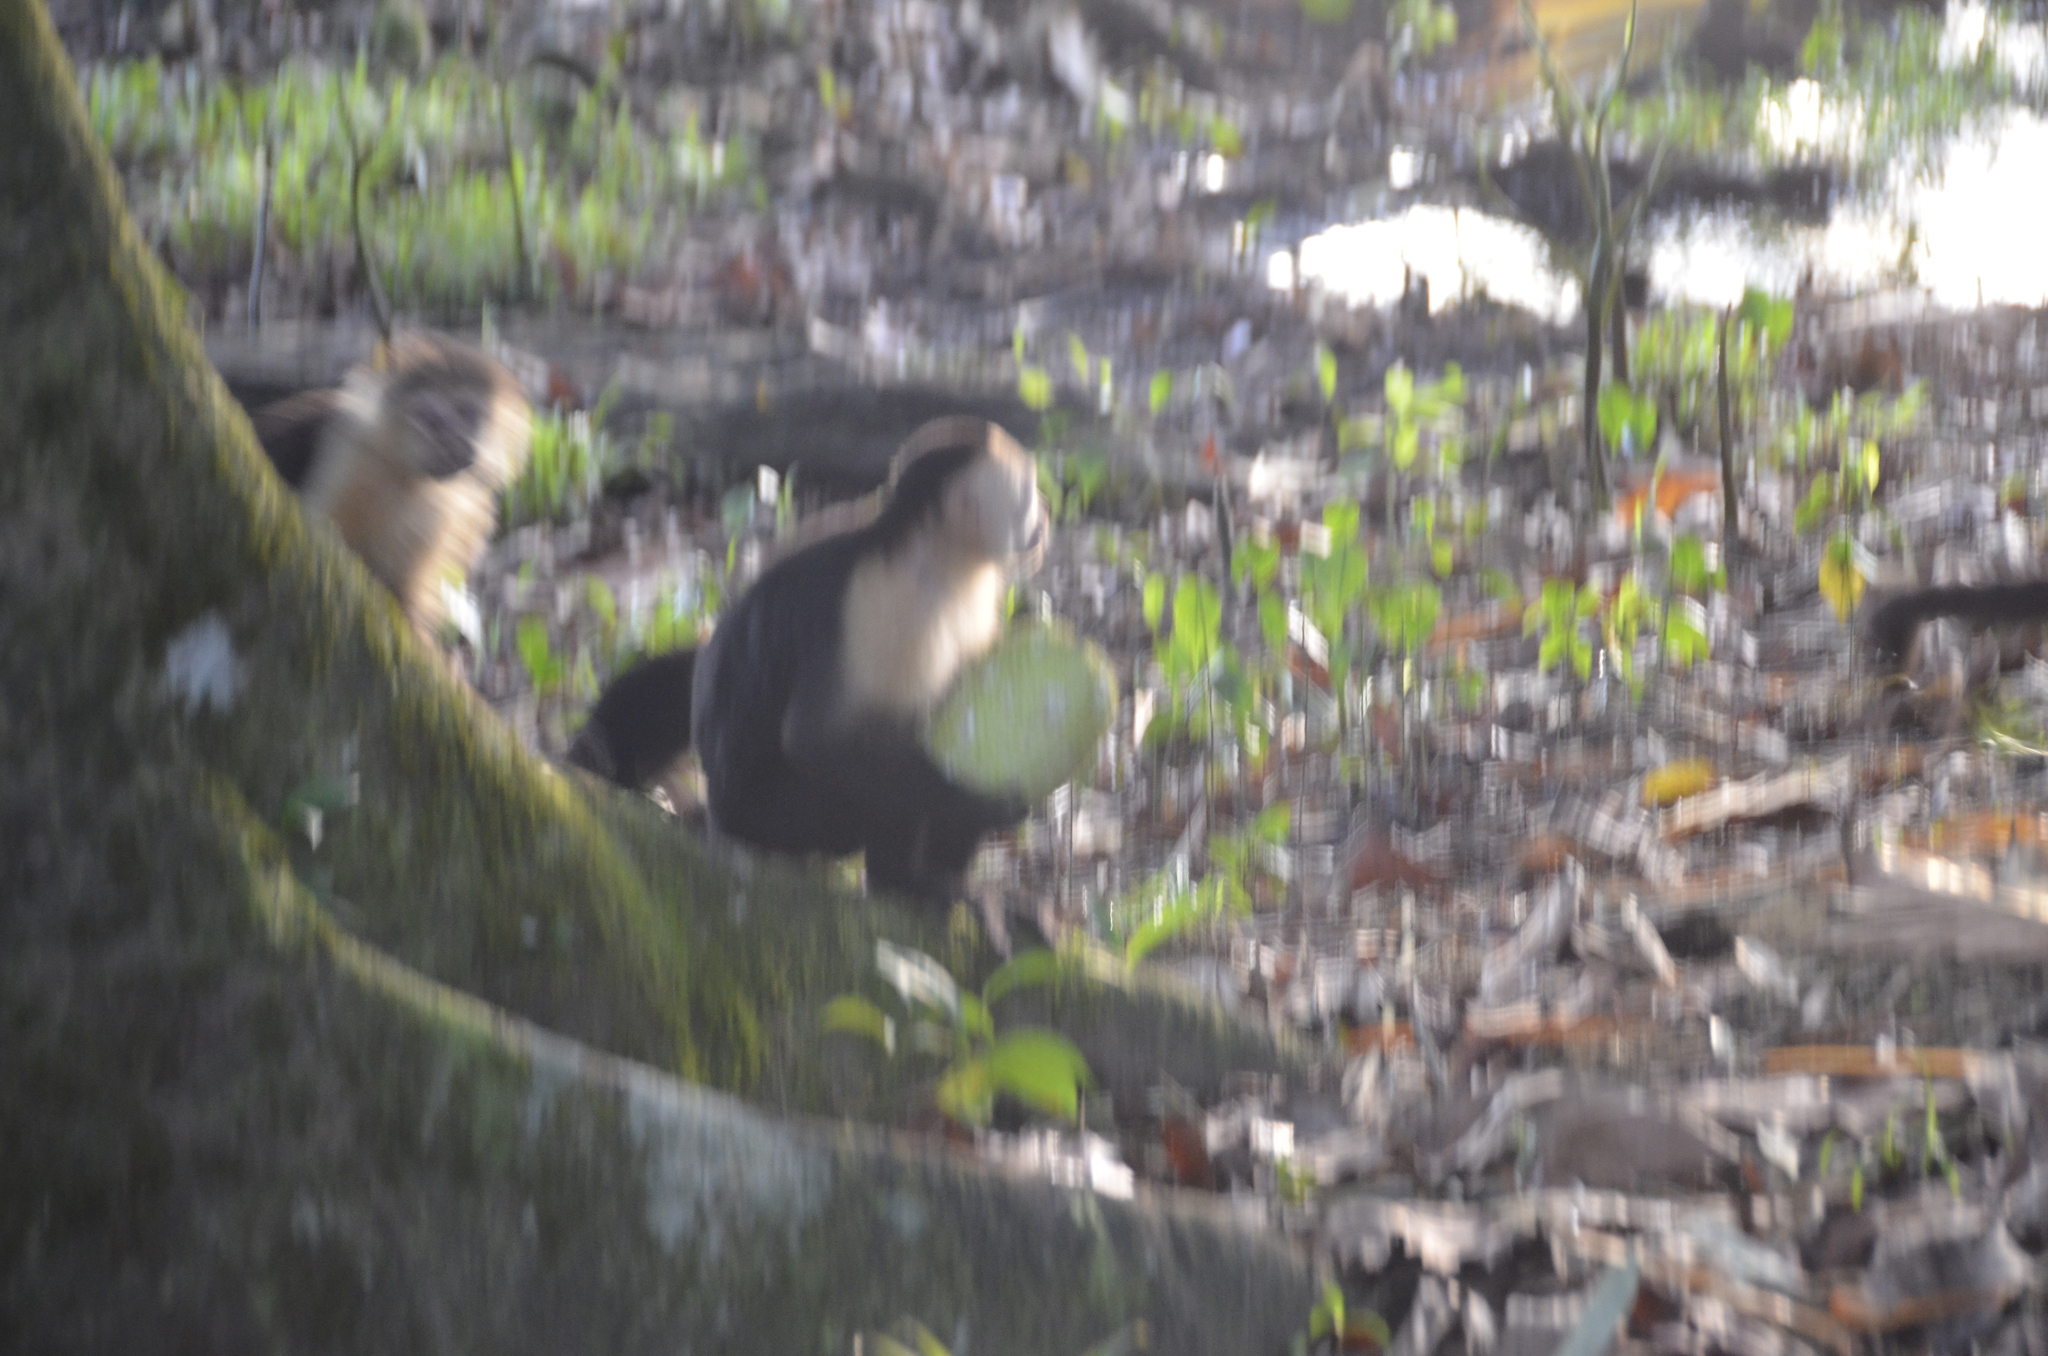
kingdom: Animalia
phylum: Chordata
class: Mammalia
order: Primates
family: Cebidae
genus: Cebus
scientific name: Cebus imitator
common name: Panamanian white-faced capuchin
